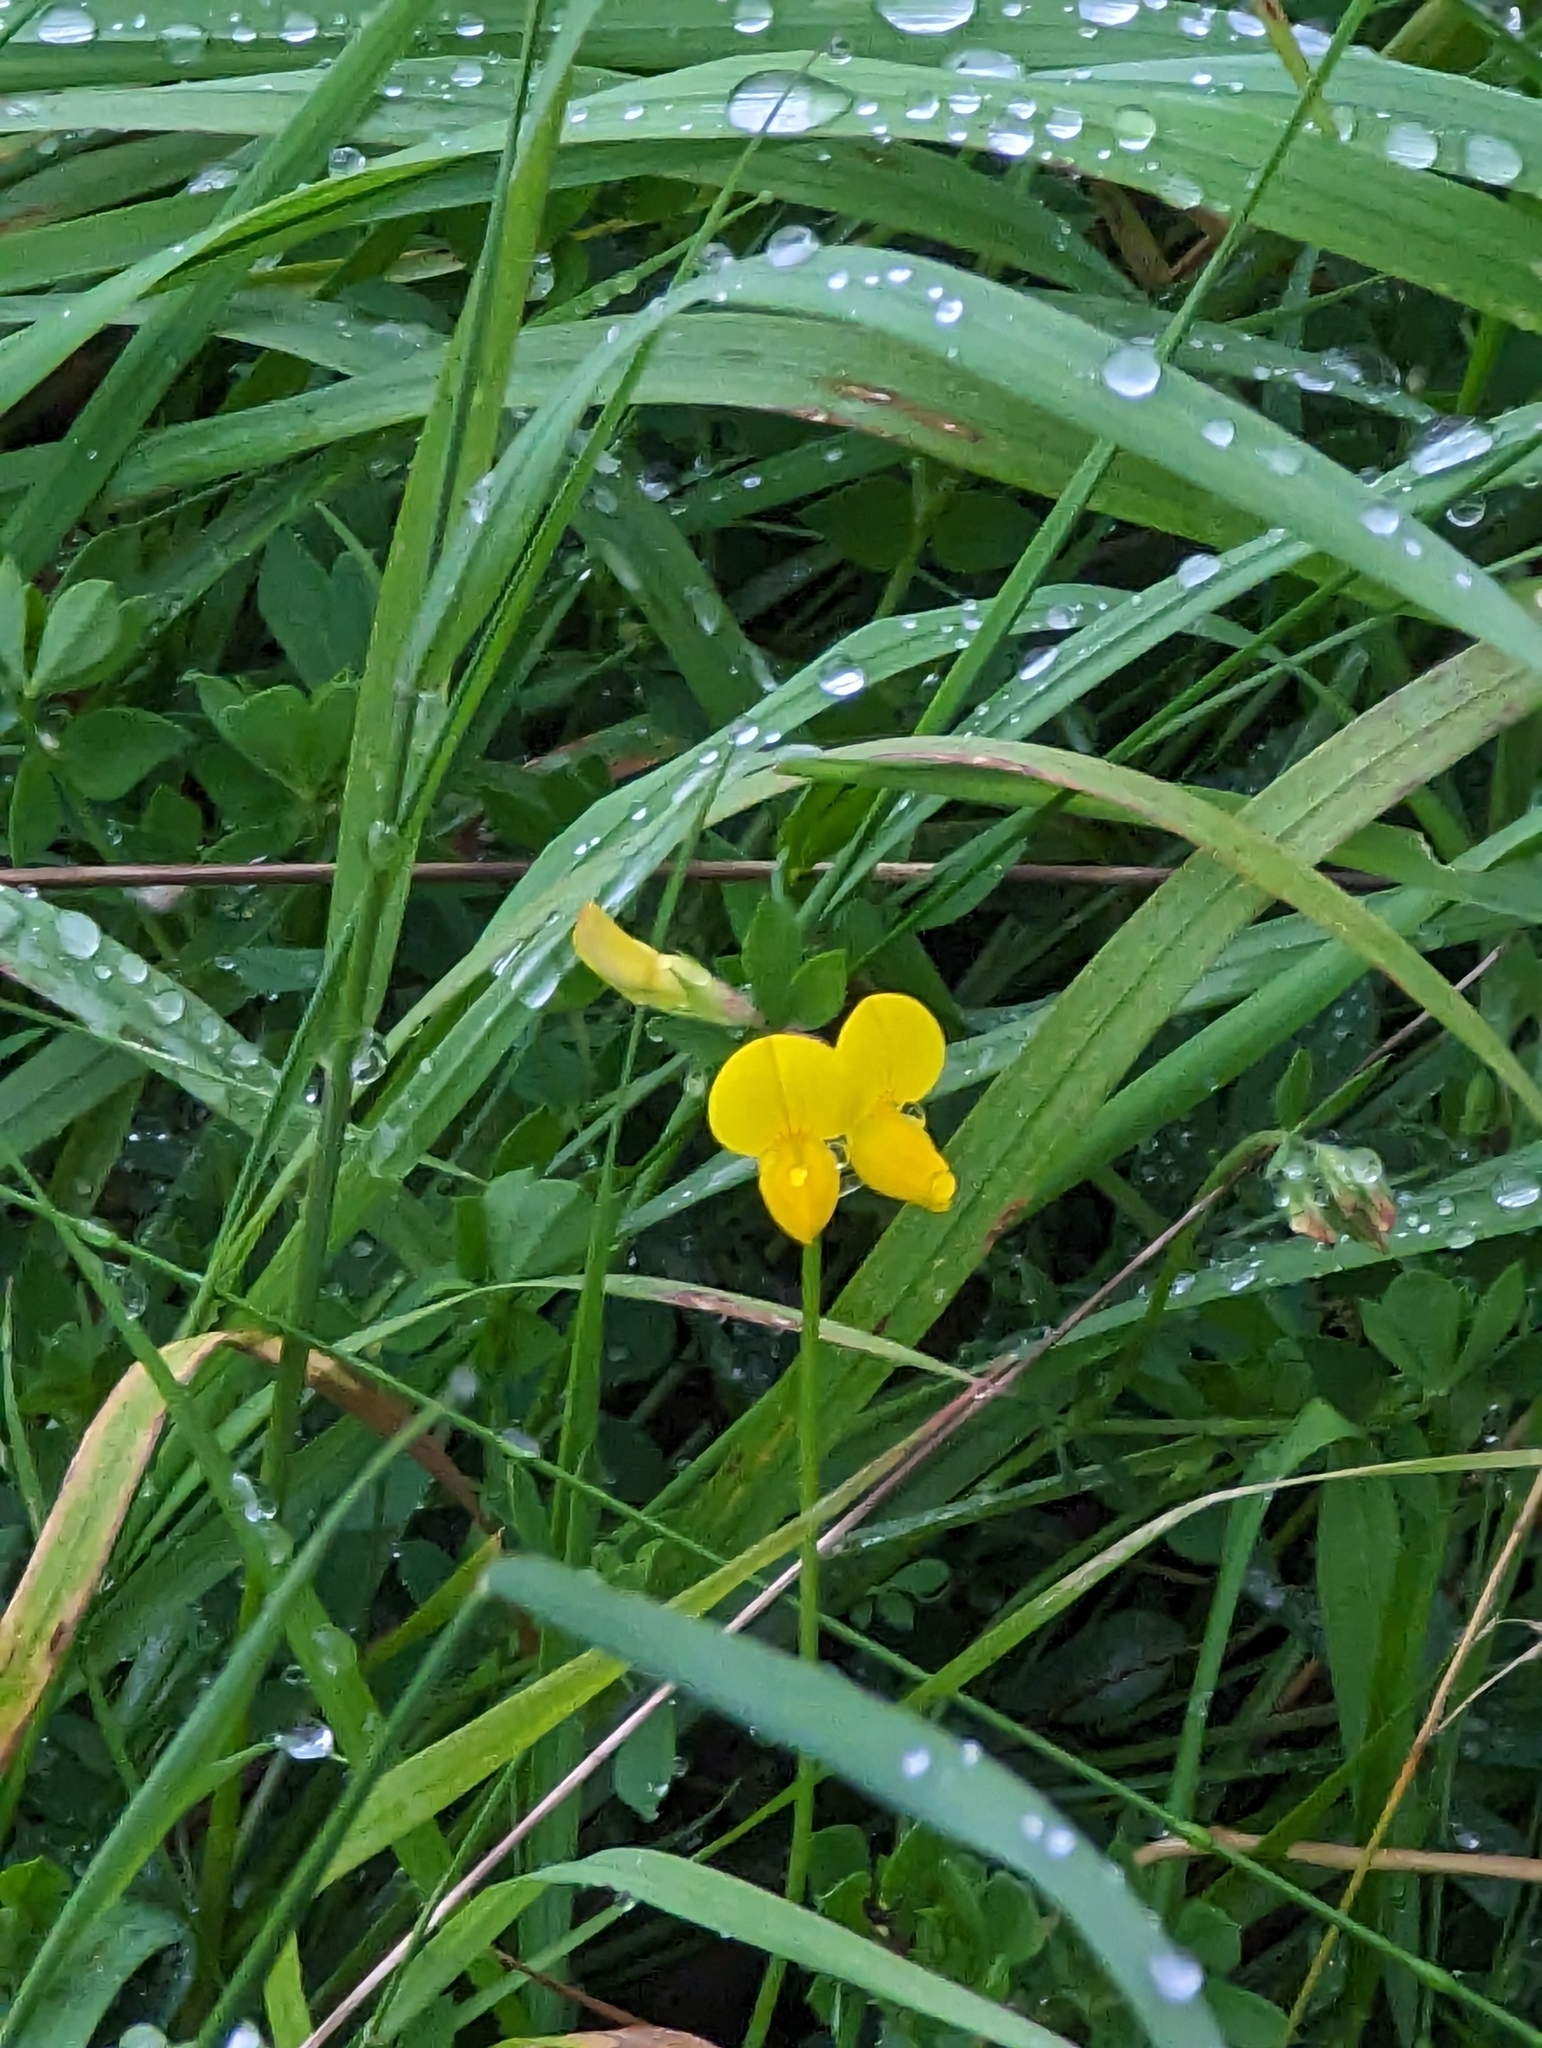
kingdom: Plantae
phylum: Tracheophyta
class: Magnoliopsida
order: Fabales
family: Fabaceae
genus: Lotus
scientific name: Lotus corniculatus
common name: Common bird's-foot-trefoil
